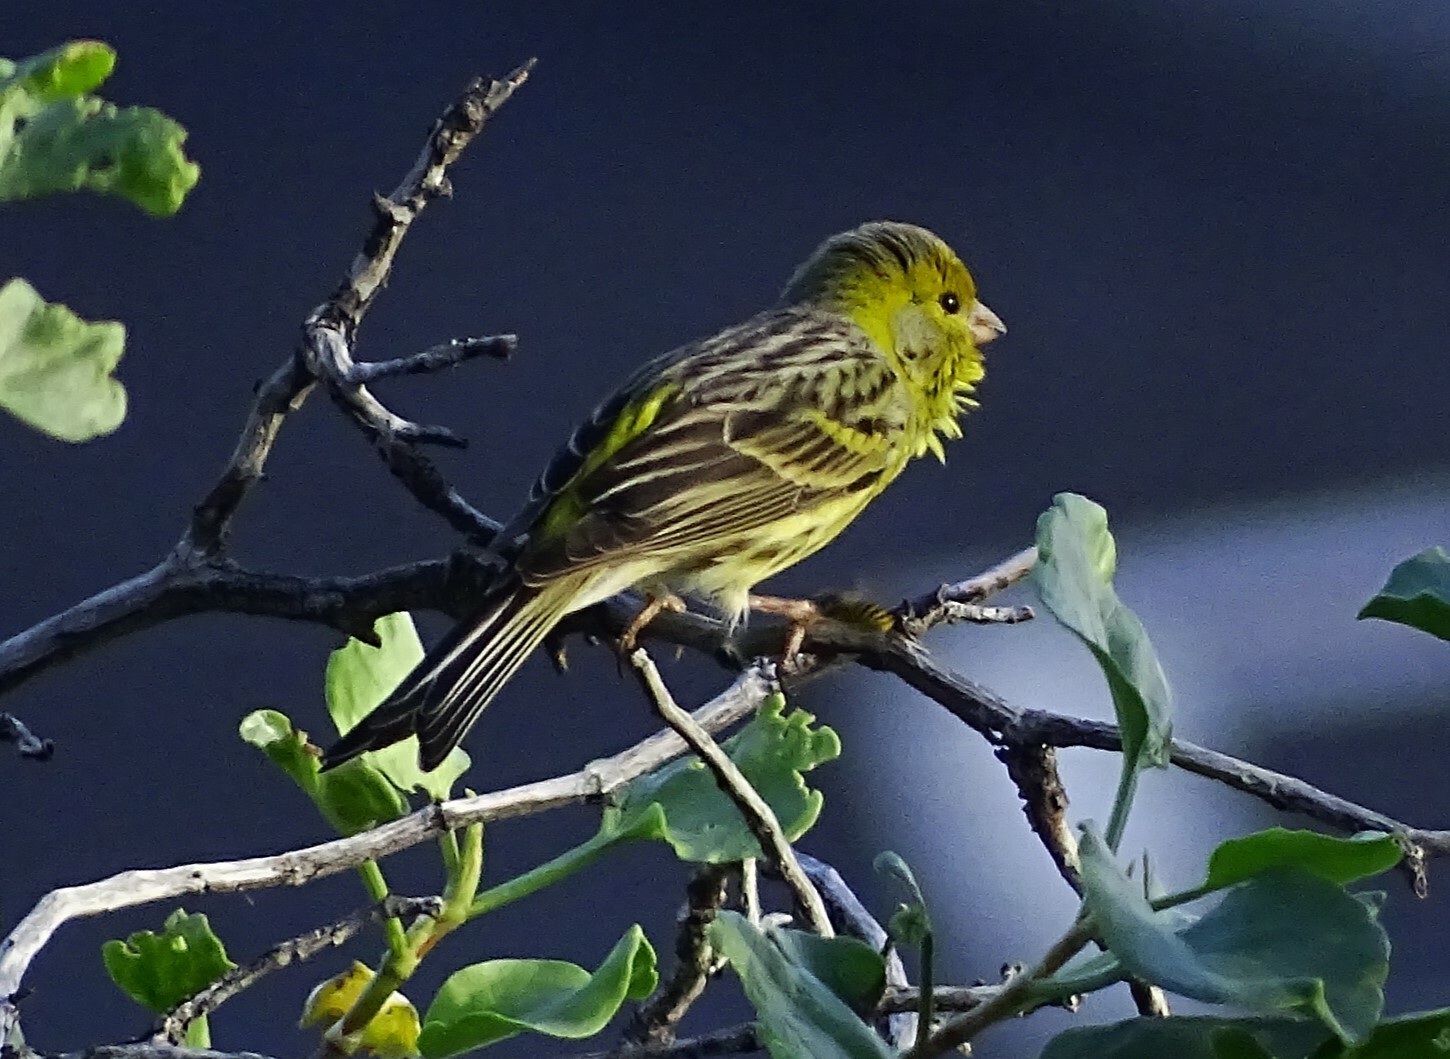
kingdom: Animalia
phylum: Chordata
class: Aves
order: Passeriformes
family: Fringillidae
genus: Serinus
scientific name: Serinus canaria
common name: Atlantic canary
